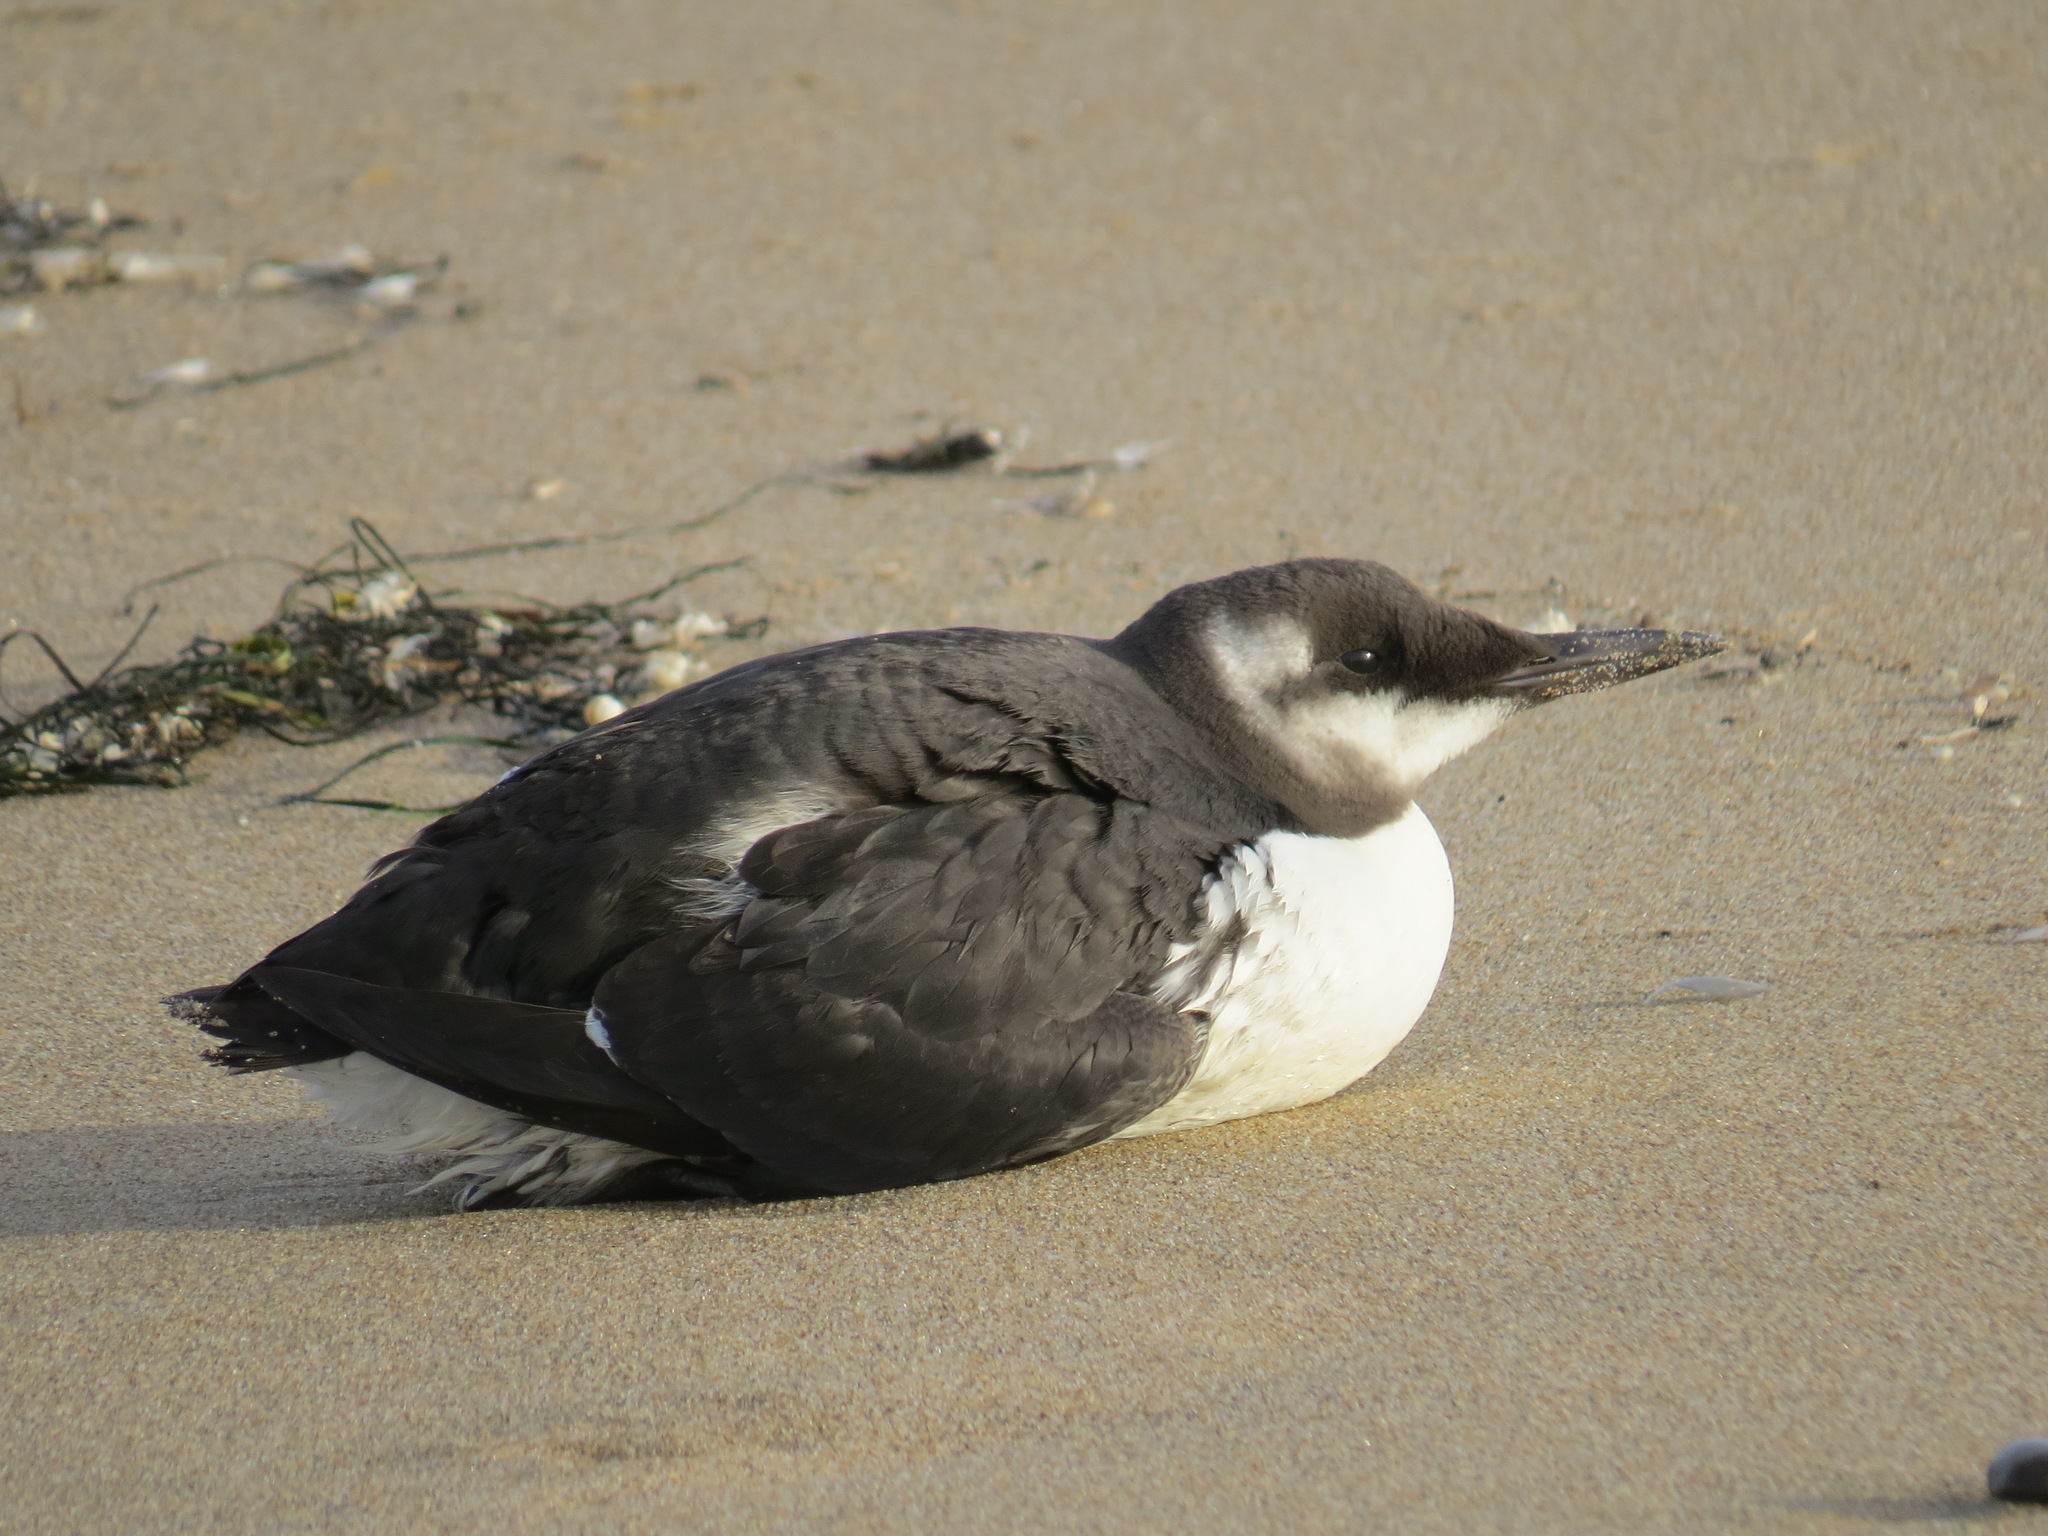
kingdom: Animalia
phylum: Chordata
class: Aves
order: Charadriiformes
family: Alcidae
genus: Uria
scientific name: Uria aalge
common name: Common murre
